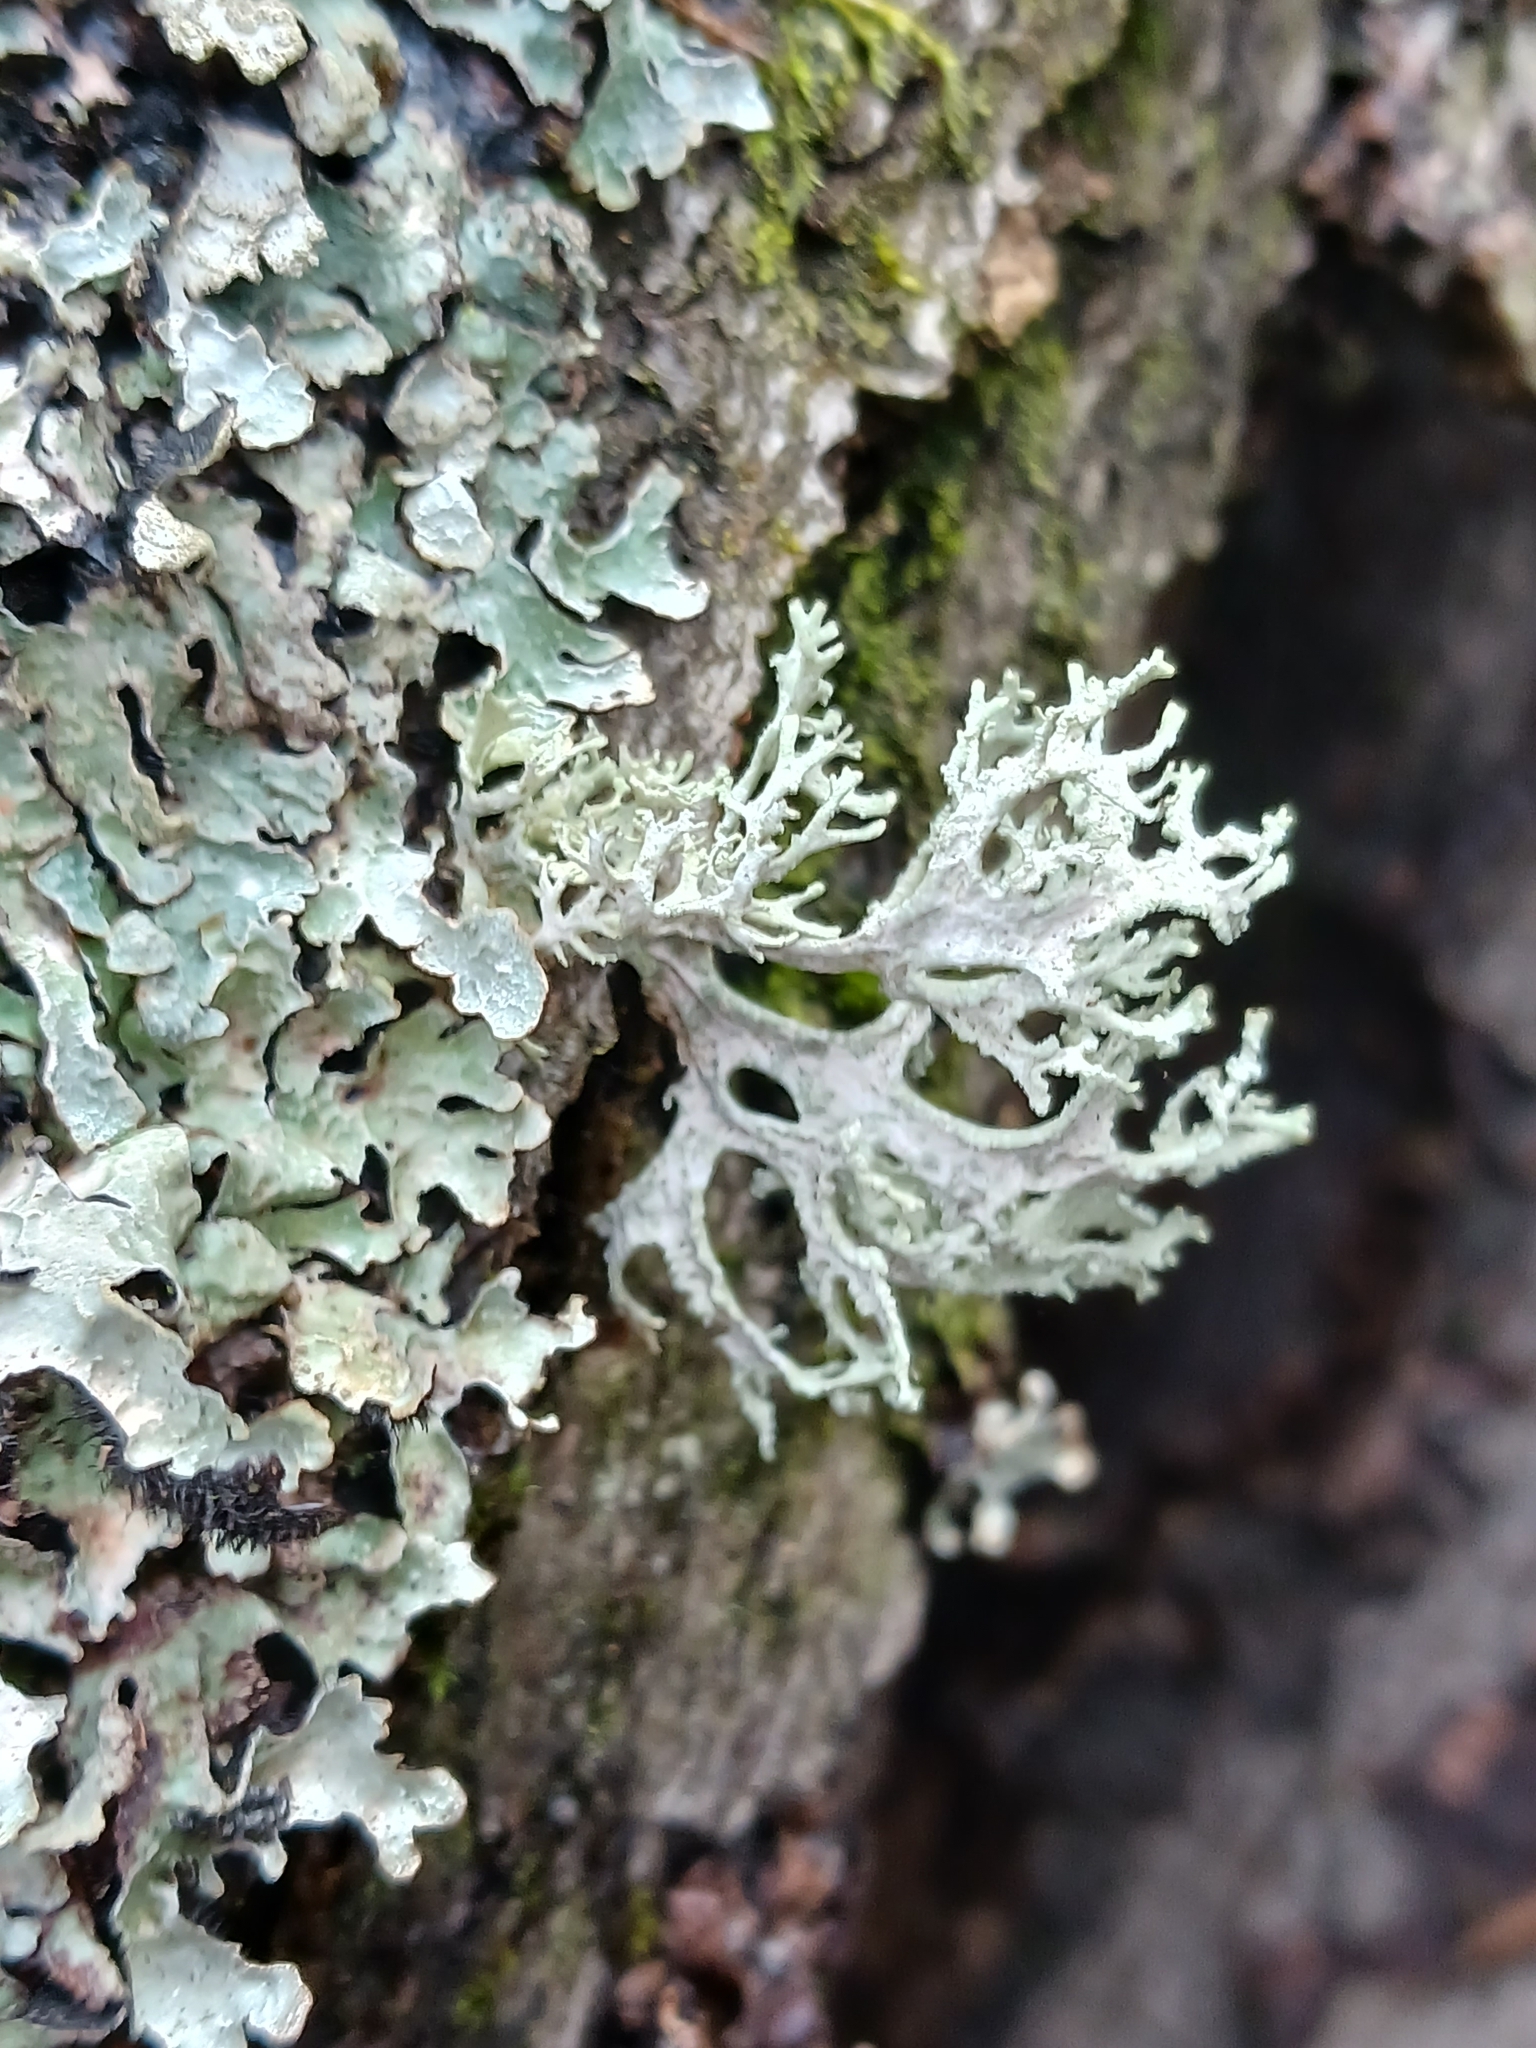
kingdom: Fungi
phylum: Ascomycota
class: Lecanoromycetes
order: Lecanorales
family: Parmeliaceae
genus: Evernia
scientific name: Evernia prunastri
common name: Oak moss
